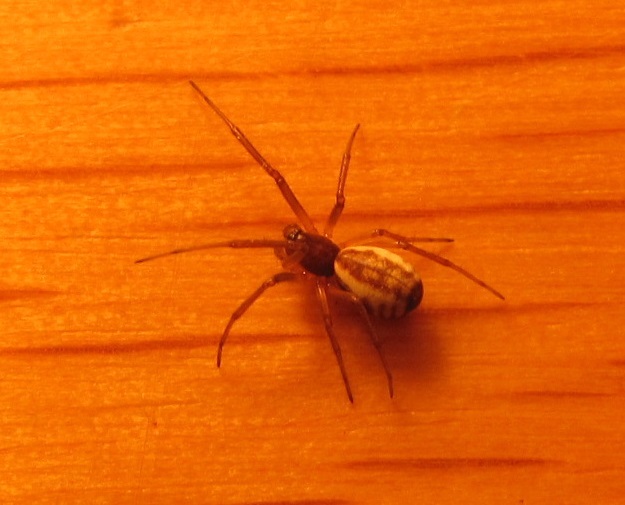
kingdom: Animalia
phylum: Arthropoda
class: Arachnida
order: Araneae
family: Linyphiidae
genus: Frontinella
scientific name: Frontinella pyramitela
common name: Bowl-and-doily spider
